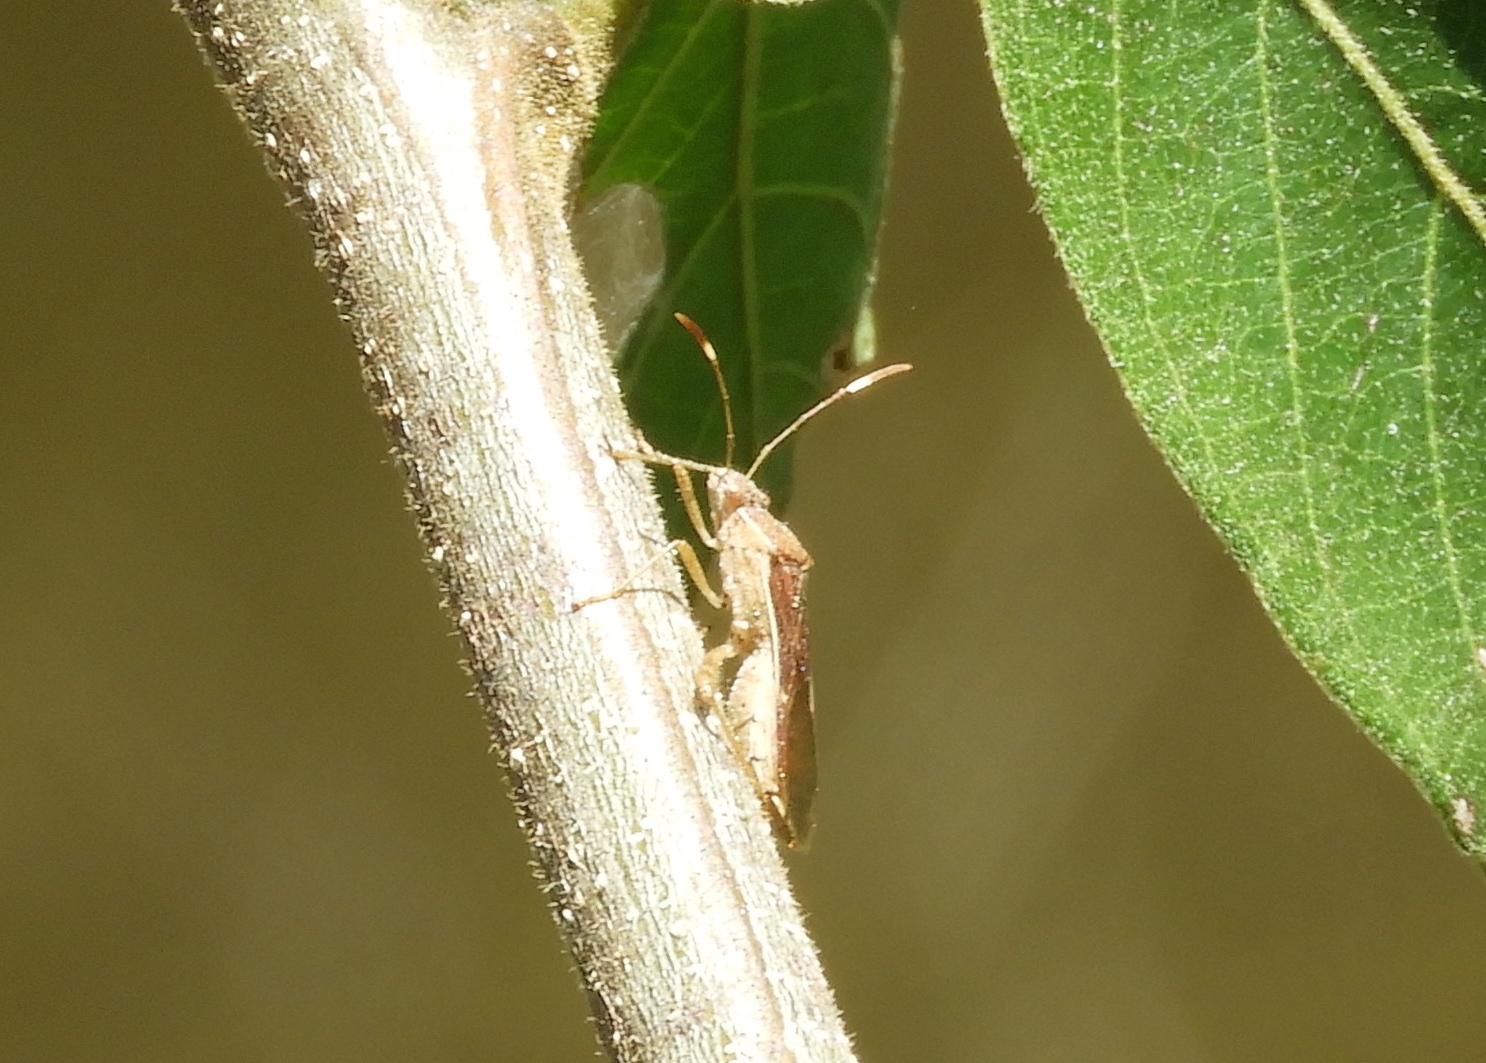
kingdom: Animalia
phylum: Arthropoda
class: Insecta
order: Hemiptera
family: Alydidae
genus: Burtinus
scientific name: Burtinus notatipennis
